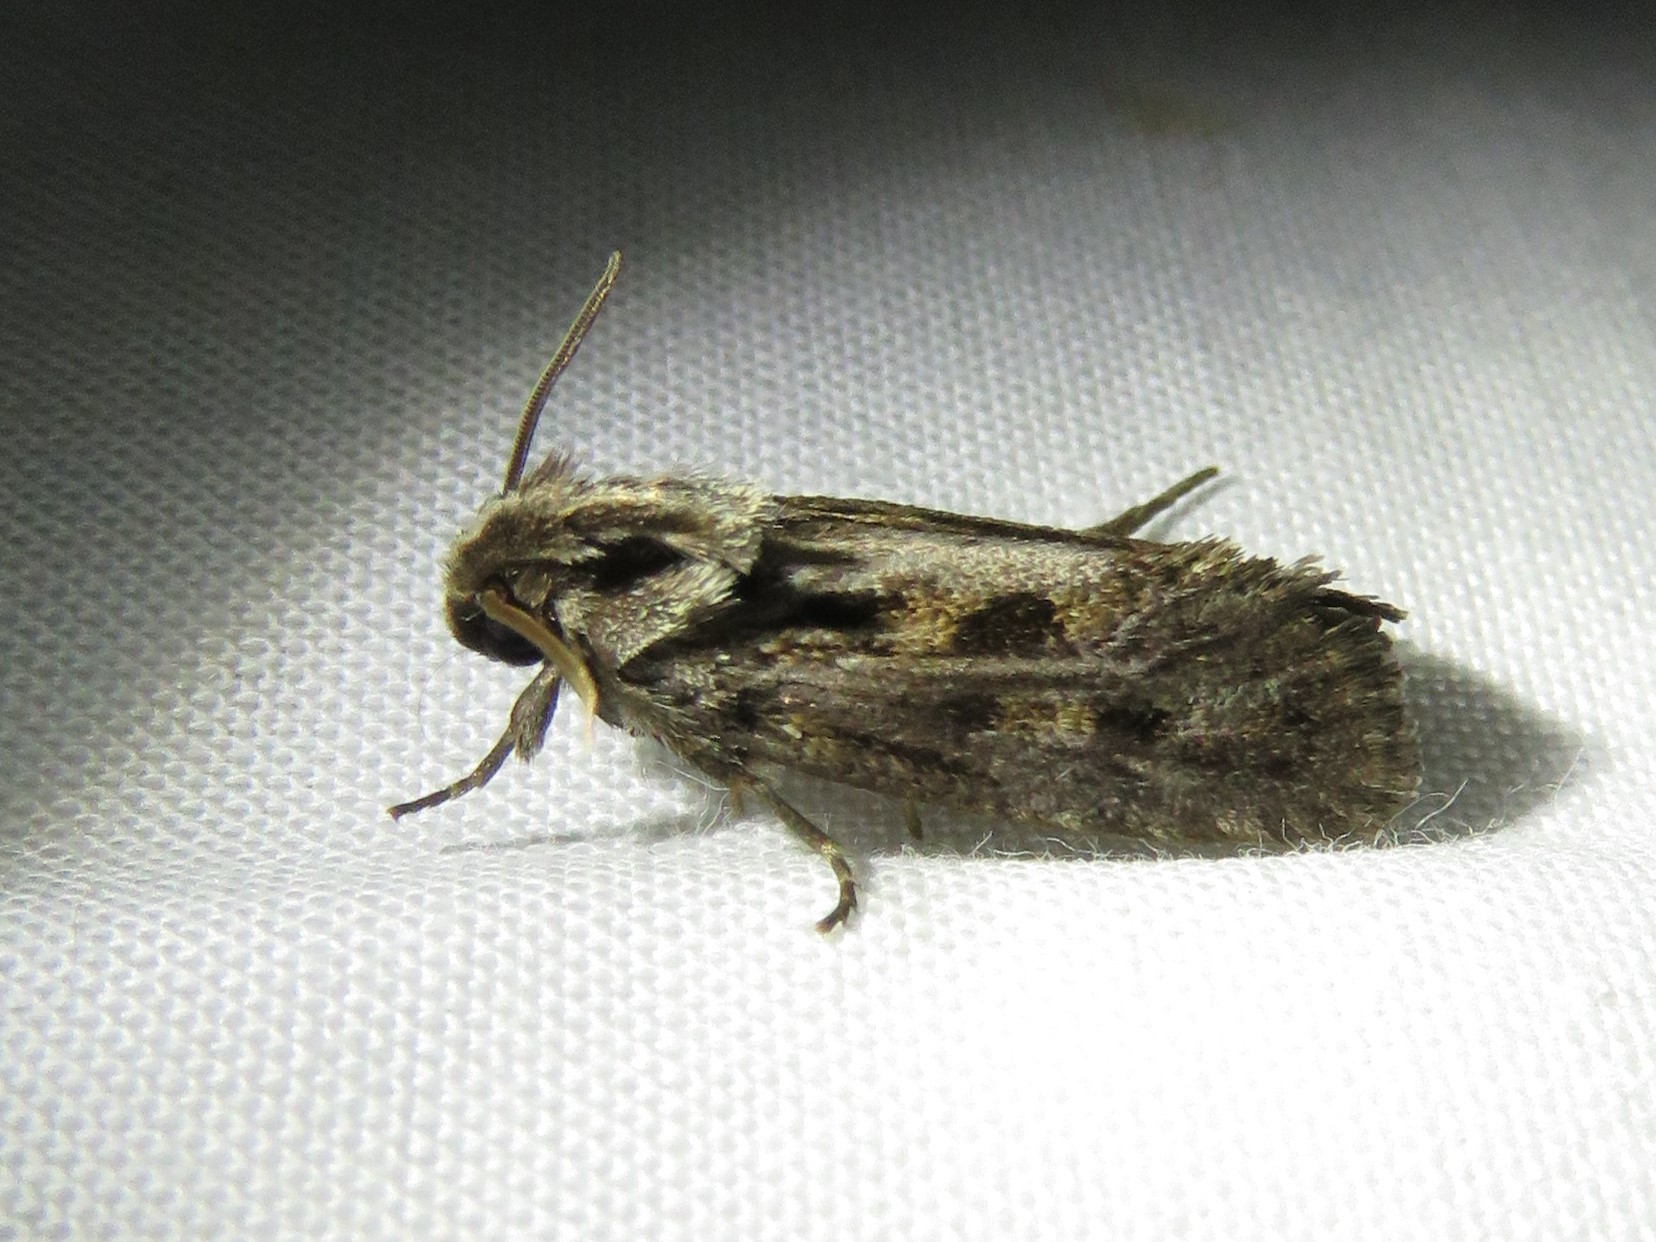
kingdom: Animalia
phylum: Arthropoda
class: Insecta
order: Lepidoptera
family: Tineidae
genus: Acrolophus
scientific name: Acrolophus popeanella
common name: Clemens' grass tubeworm moth
